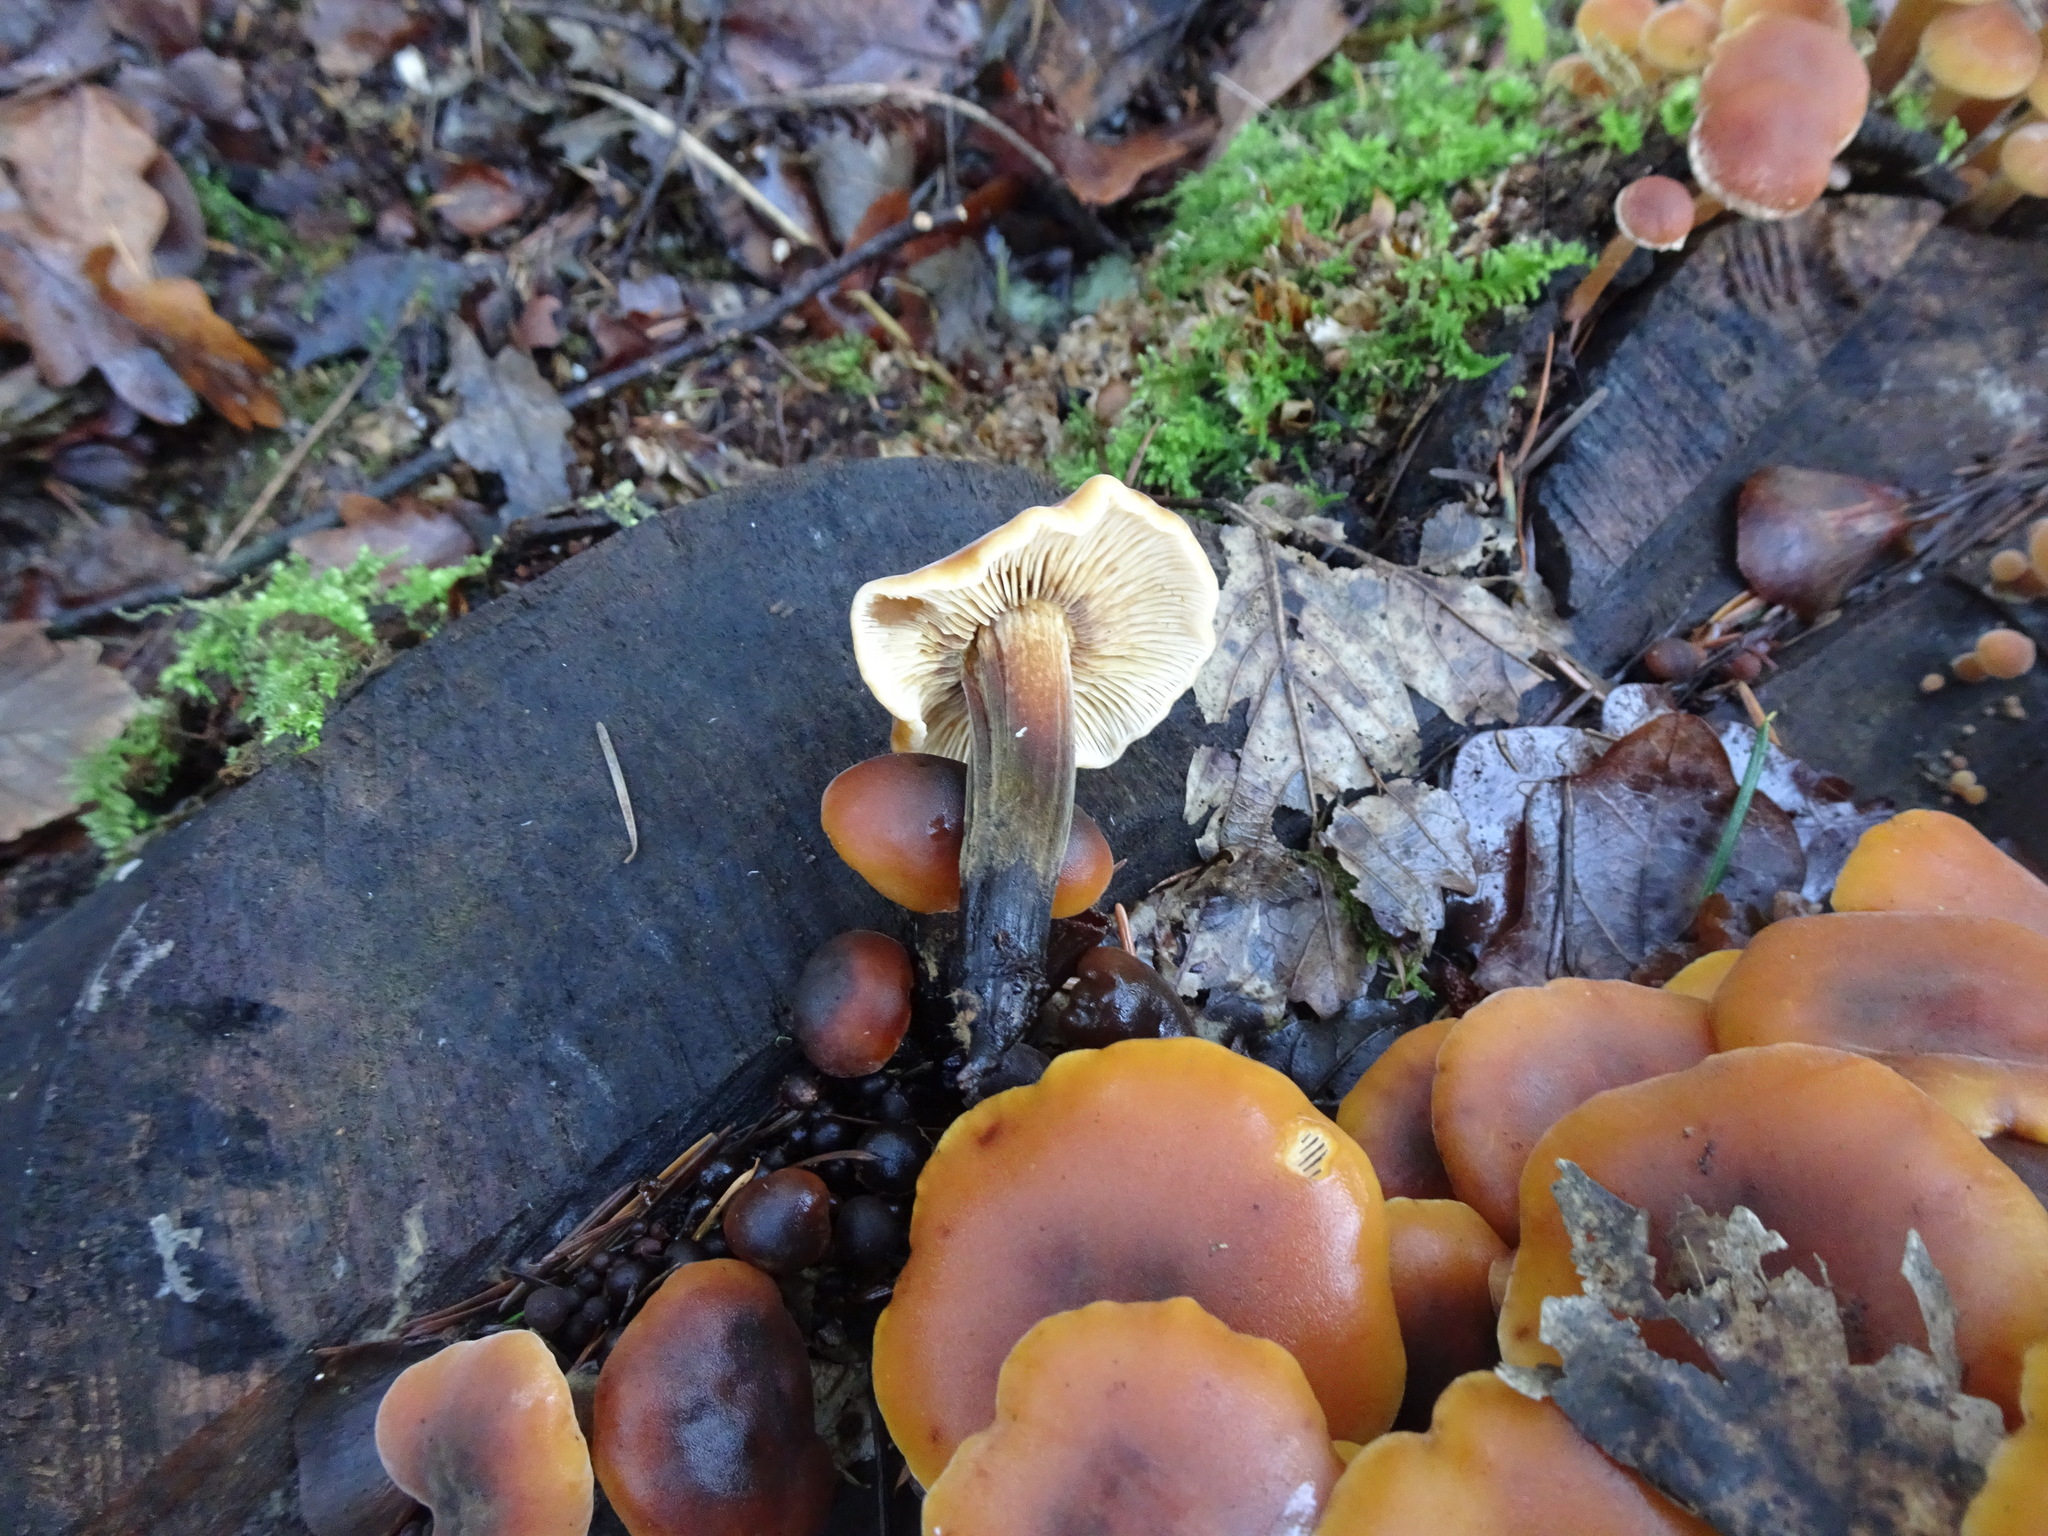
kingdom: Fungi
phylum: Basidiomycota
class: Agaricomycetes
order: Agaricales
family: Physalacriaceae
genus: Flammulina
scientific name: Flammulina
